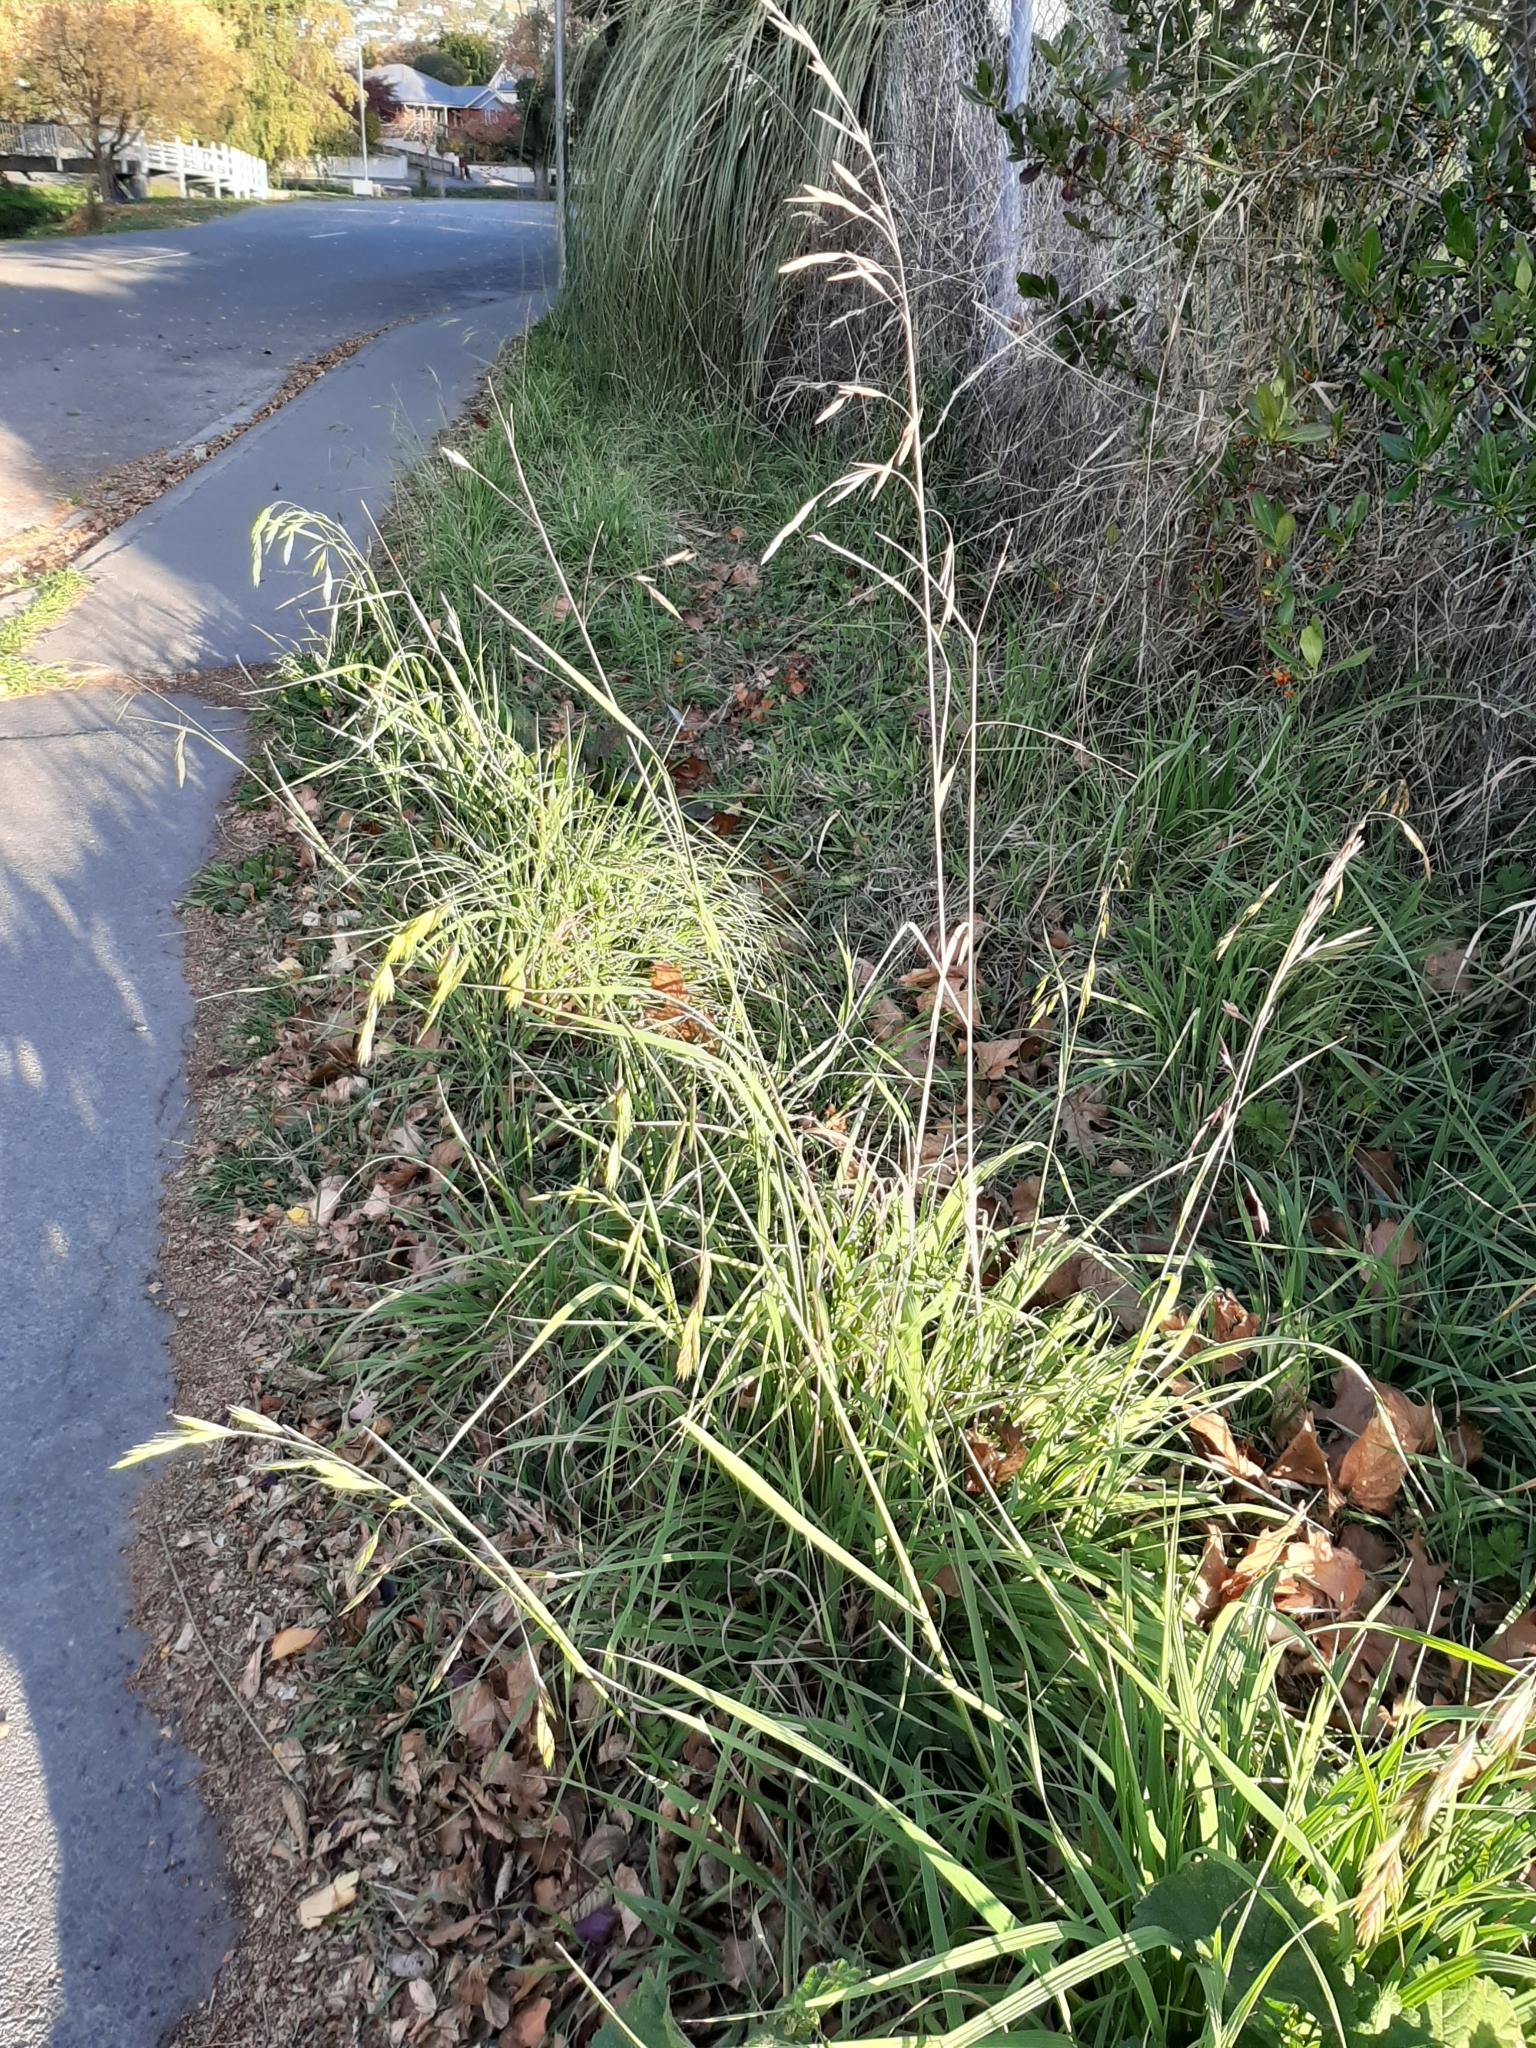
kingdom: Plantae
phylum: Tracheophyta
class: Liliopsida
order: Poales
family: Poaceae
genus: Bromus
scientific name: Bromus catharticus
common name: Rescuegrass
